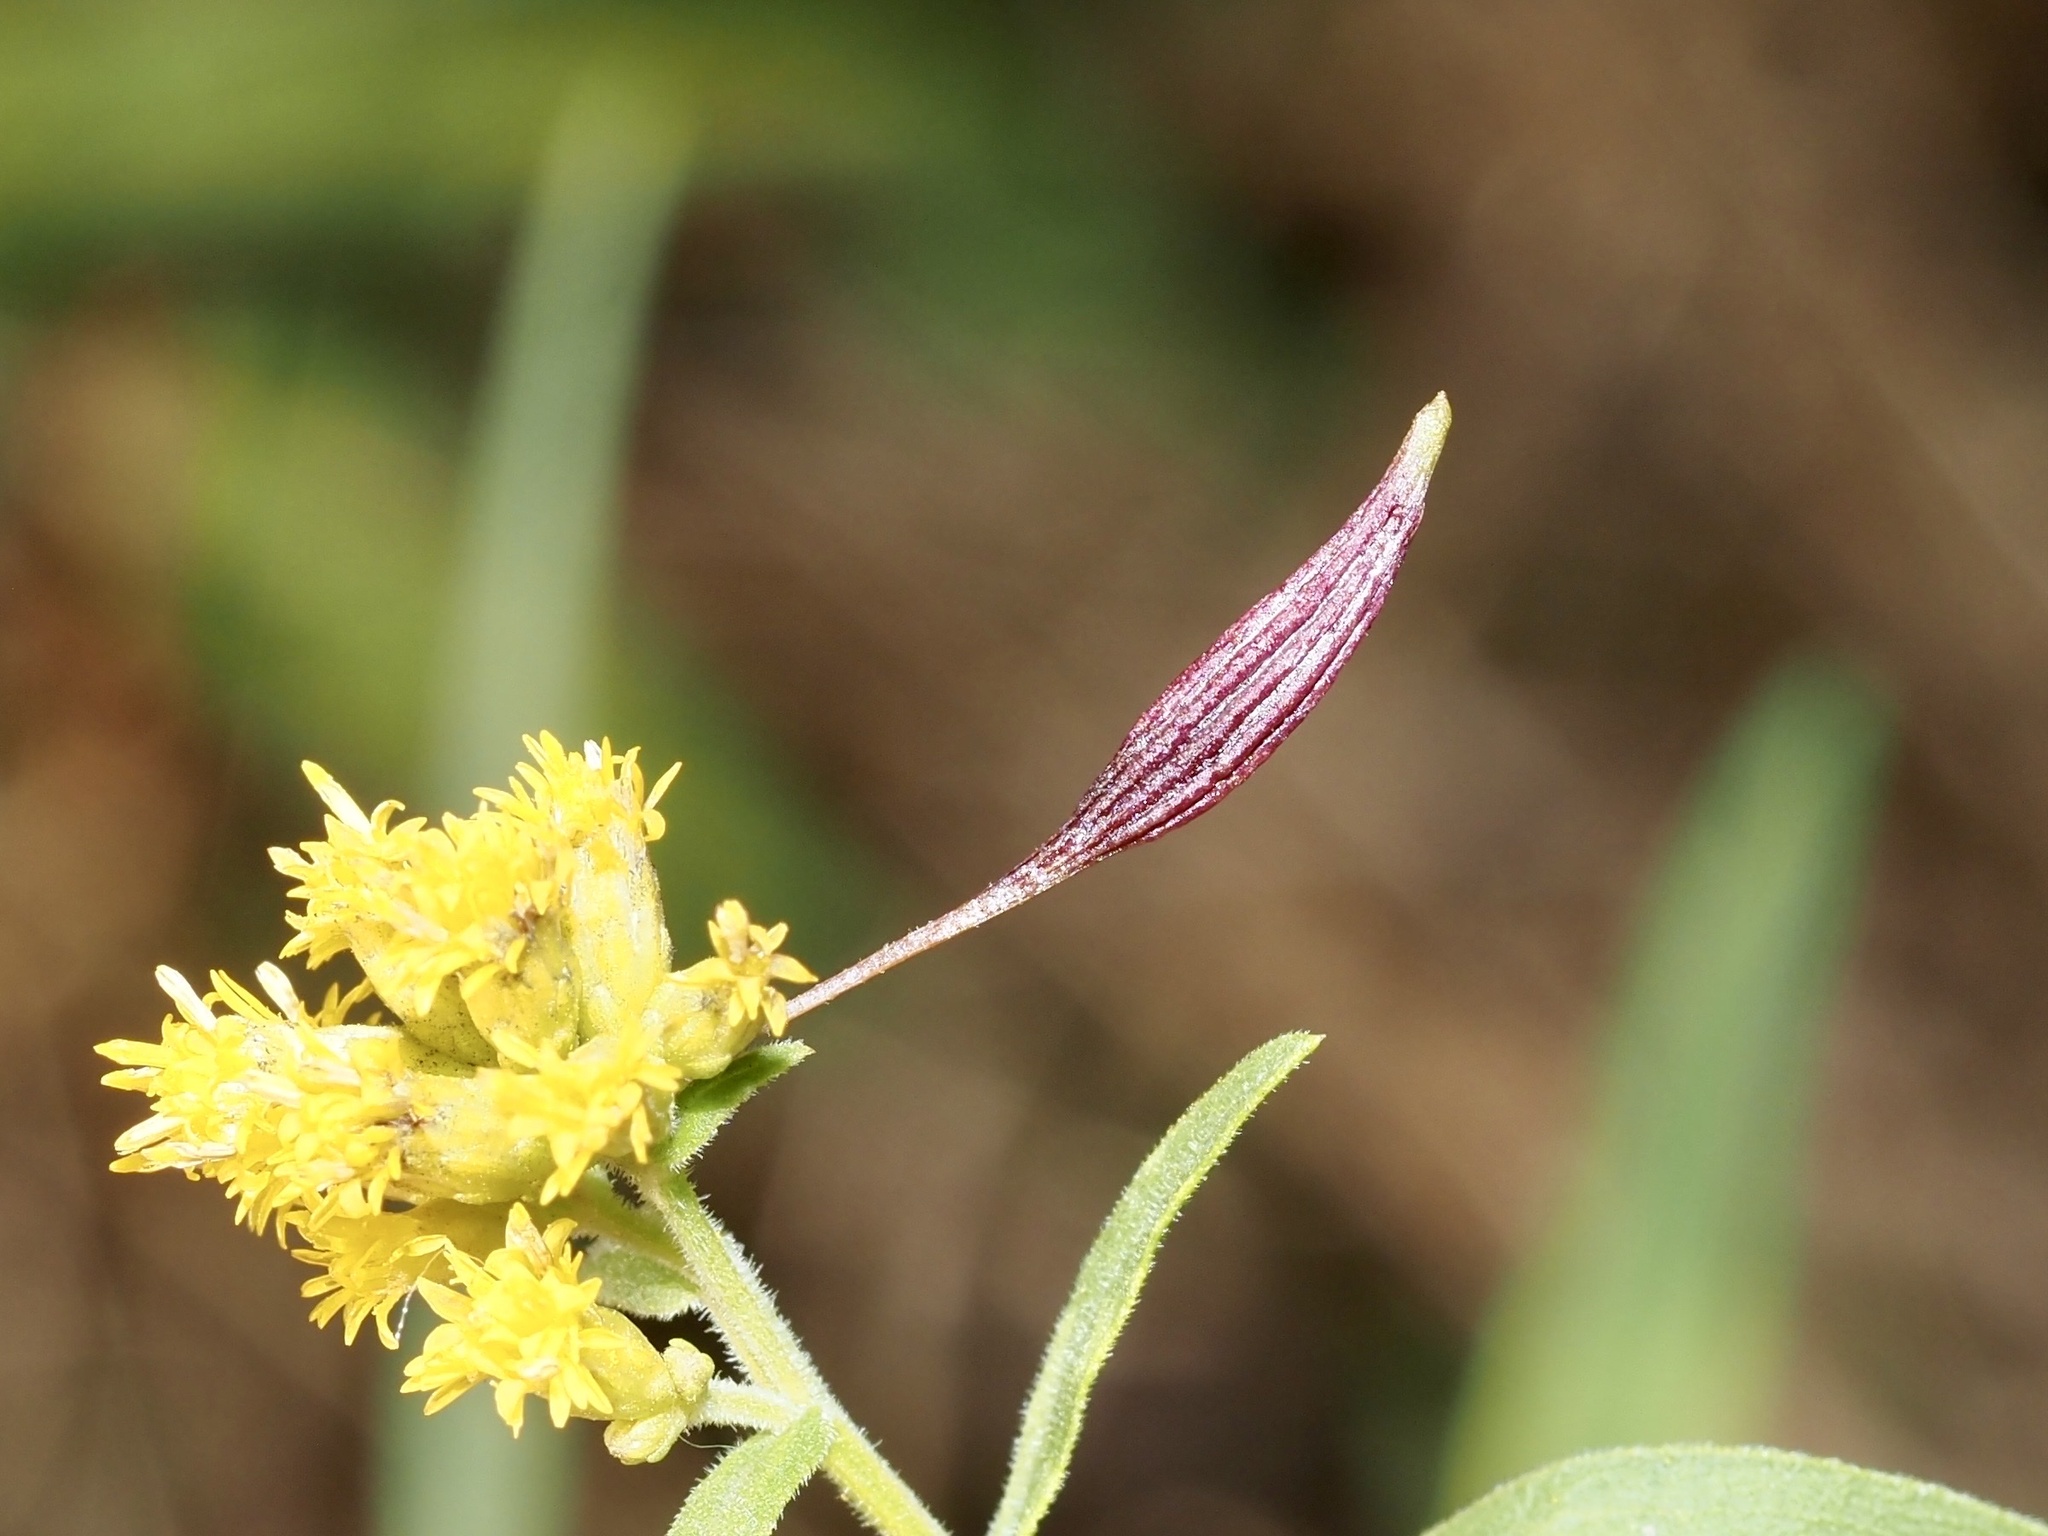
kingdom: Animalia
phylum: Arthropoda
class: Insecta
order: Diptera
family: Cecidomyiidae
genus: Rhopalomyia
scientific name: Rhopalomyia pedicellata
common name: Goldentop pedicellate gall midge
